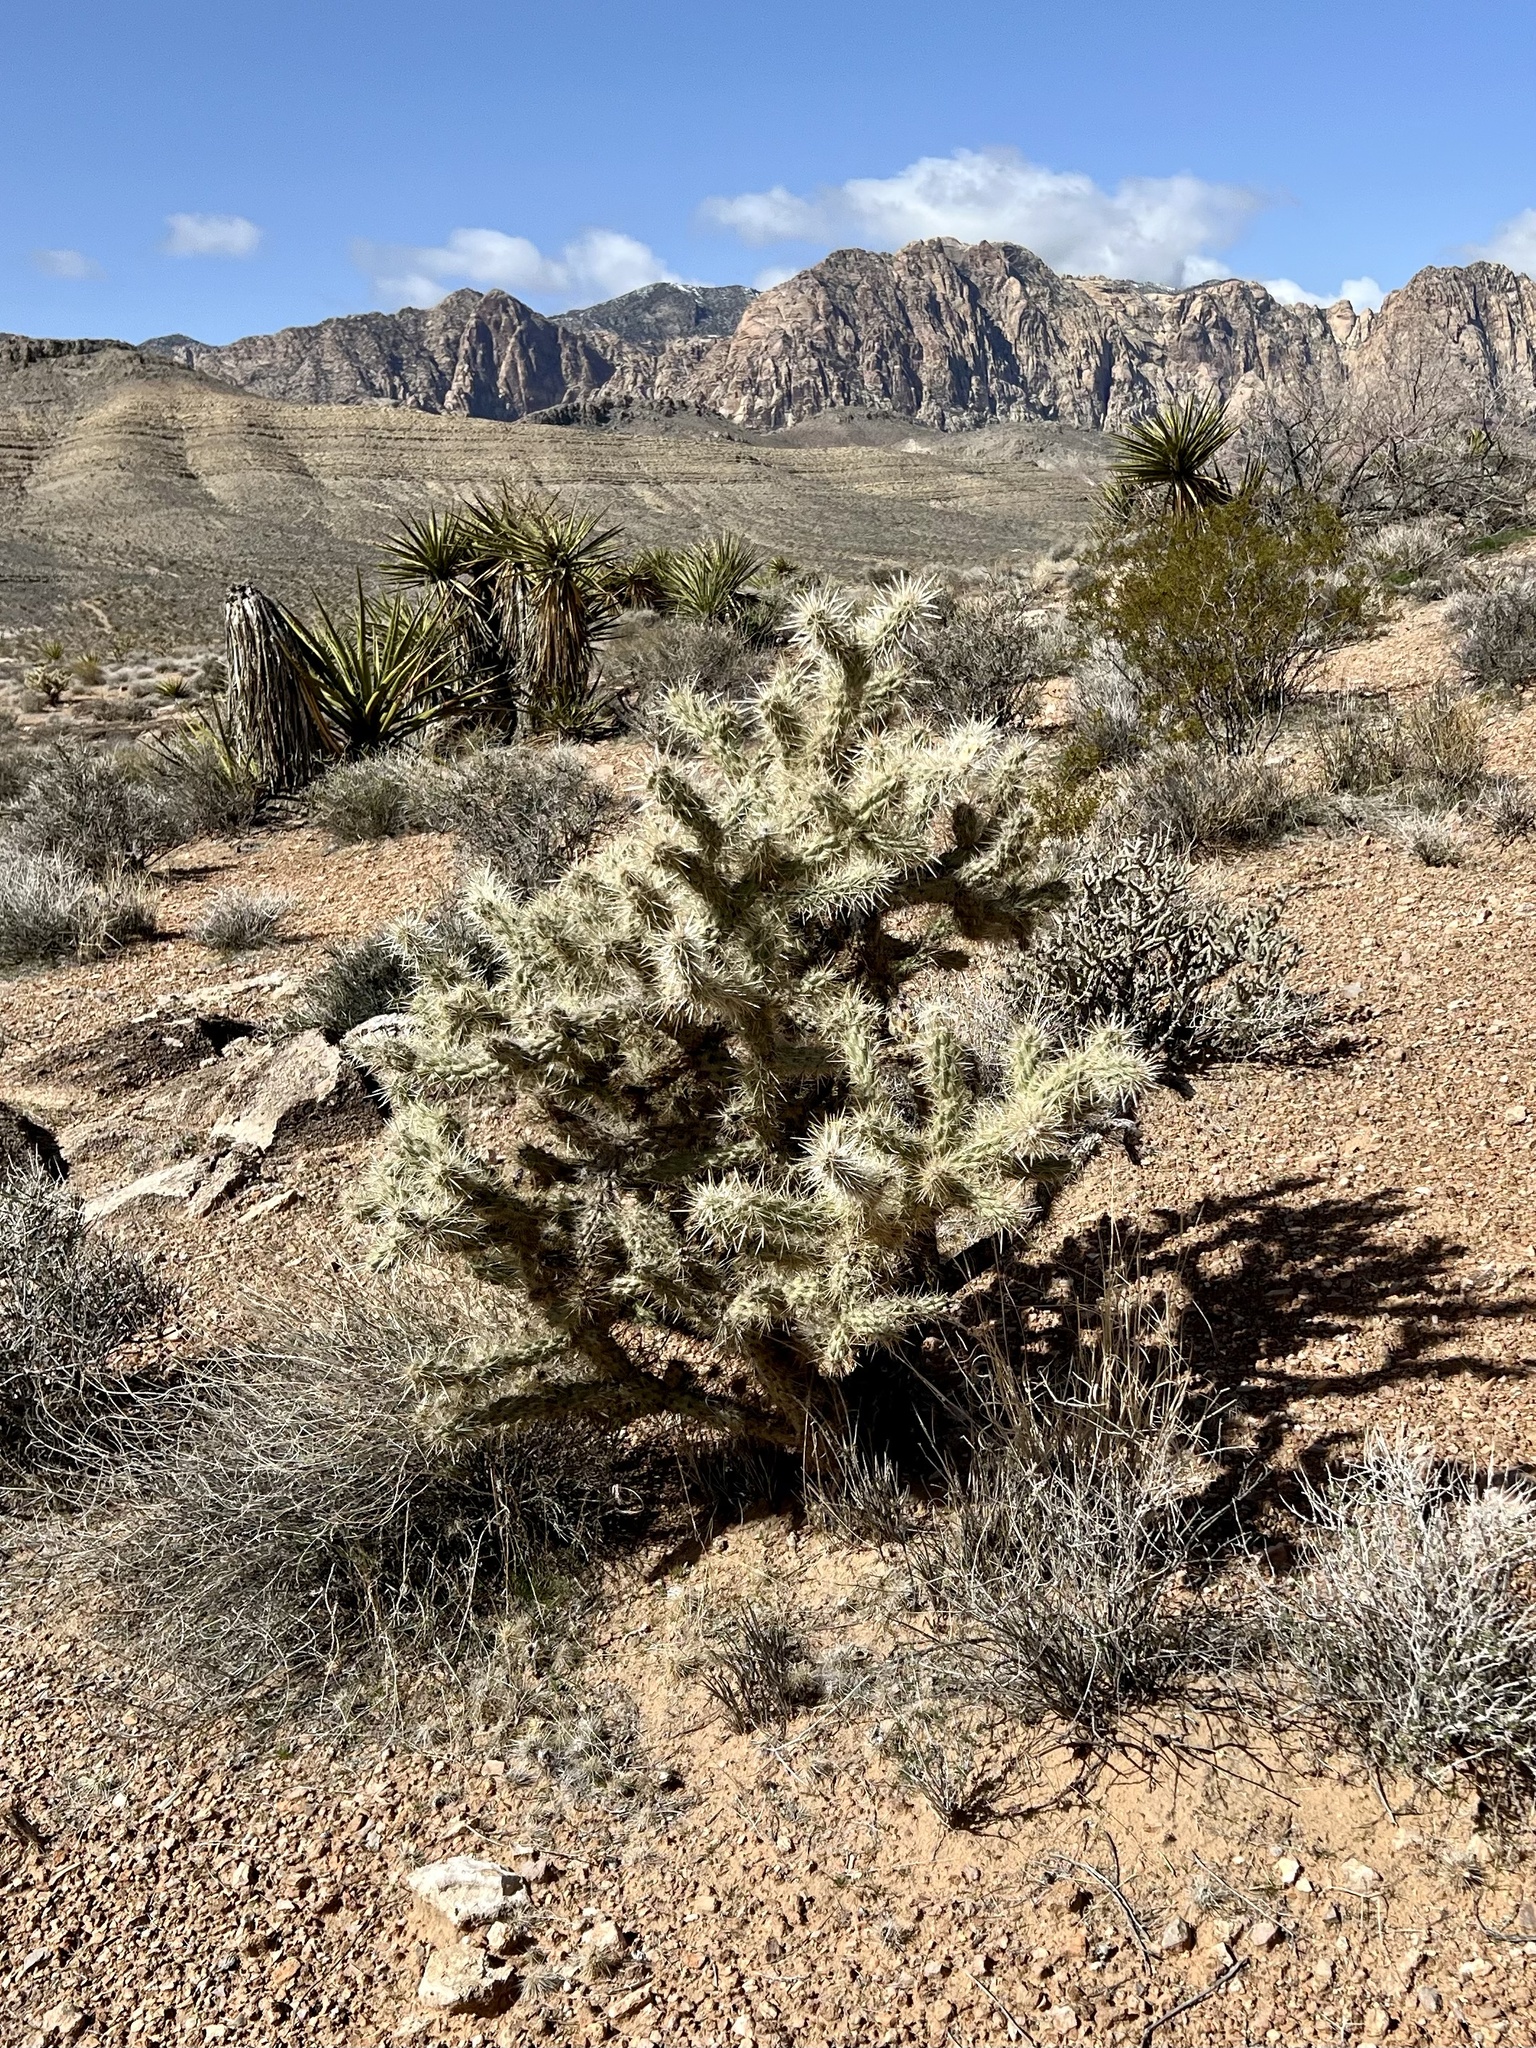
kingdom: Plantae
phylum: Tracheophyta
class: Magnoliopsida
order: Caryophyllales
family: Cactaceae
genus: Cylindropuntia
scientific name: Cylindropuntia echinocarpa
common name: Ground cholla
